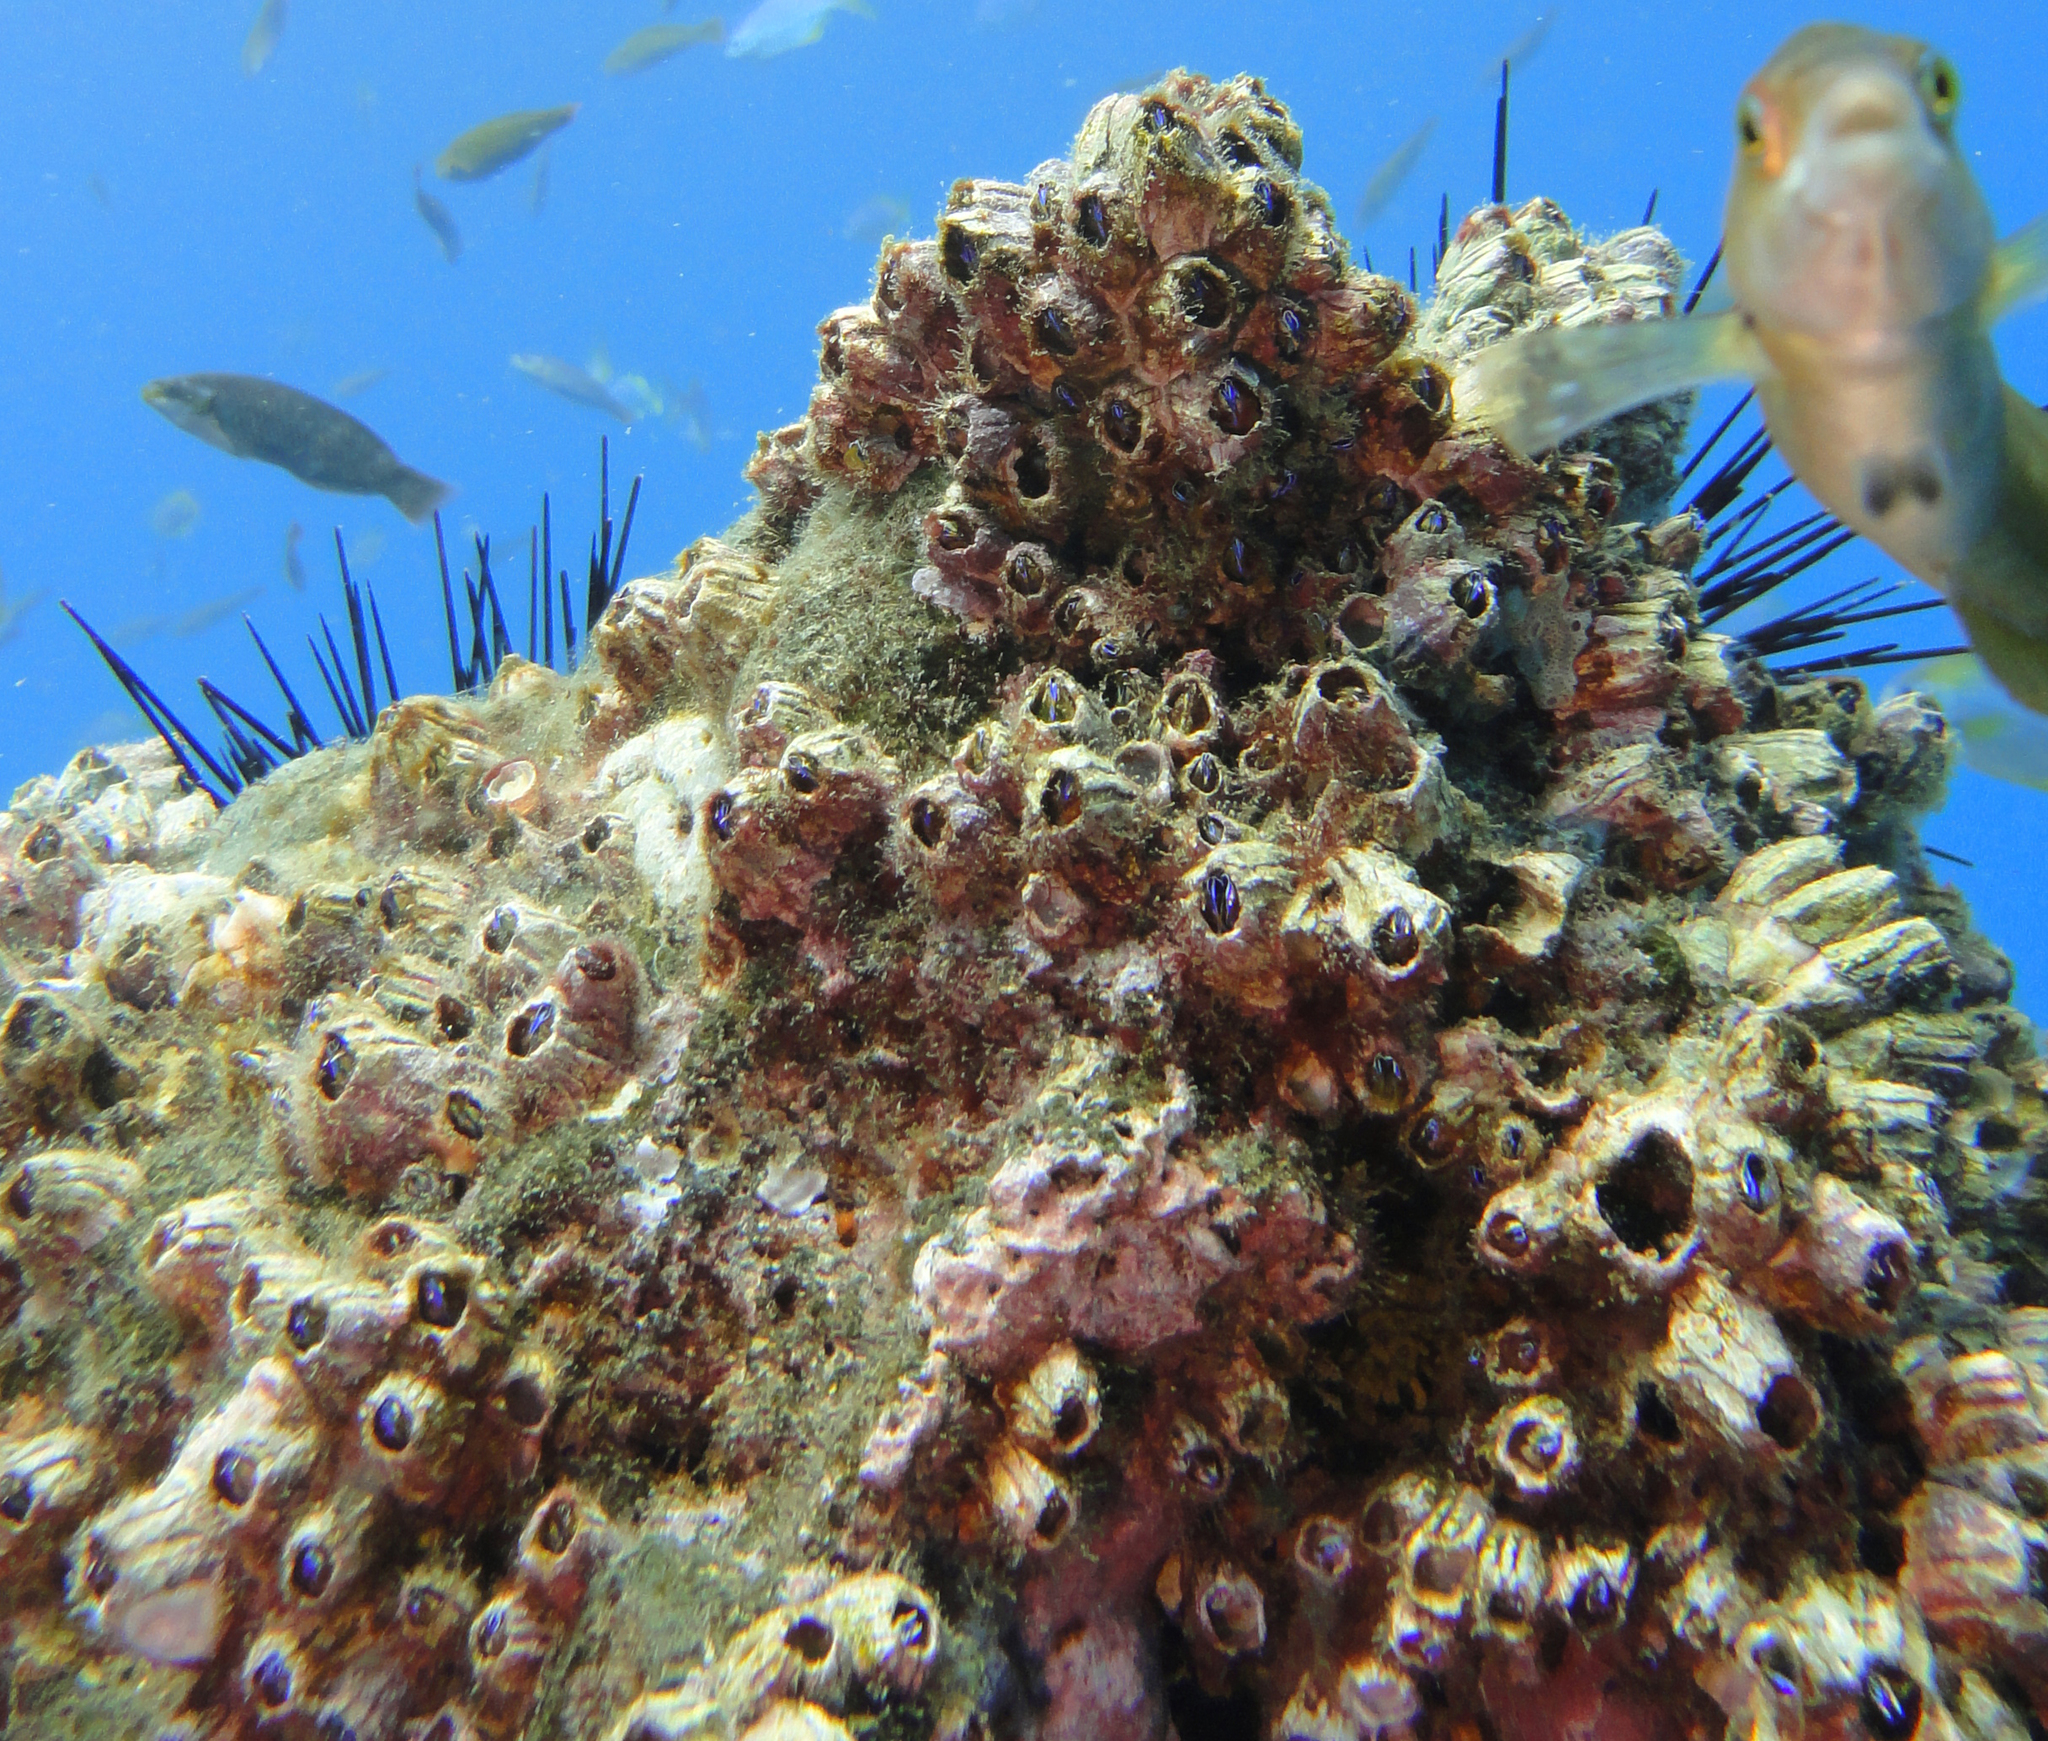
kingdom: Animalia
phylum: Arthropoda
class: Maxillopoda
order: Sessilia
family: Balanidae
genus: Austromegabalanus
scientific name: Austromegabalanus psittacus
